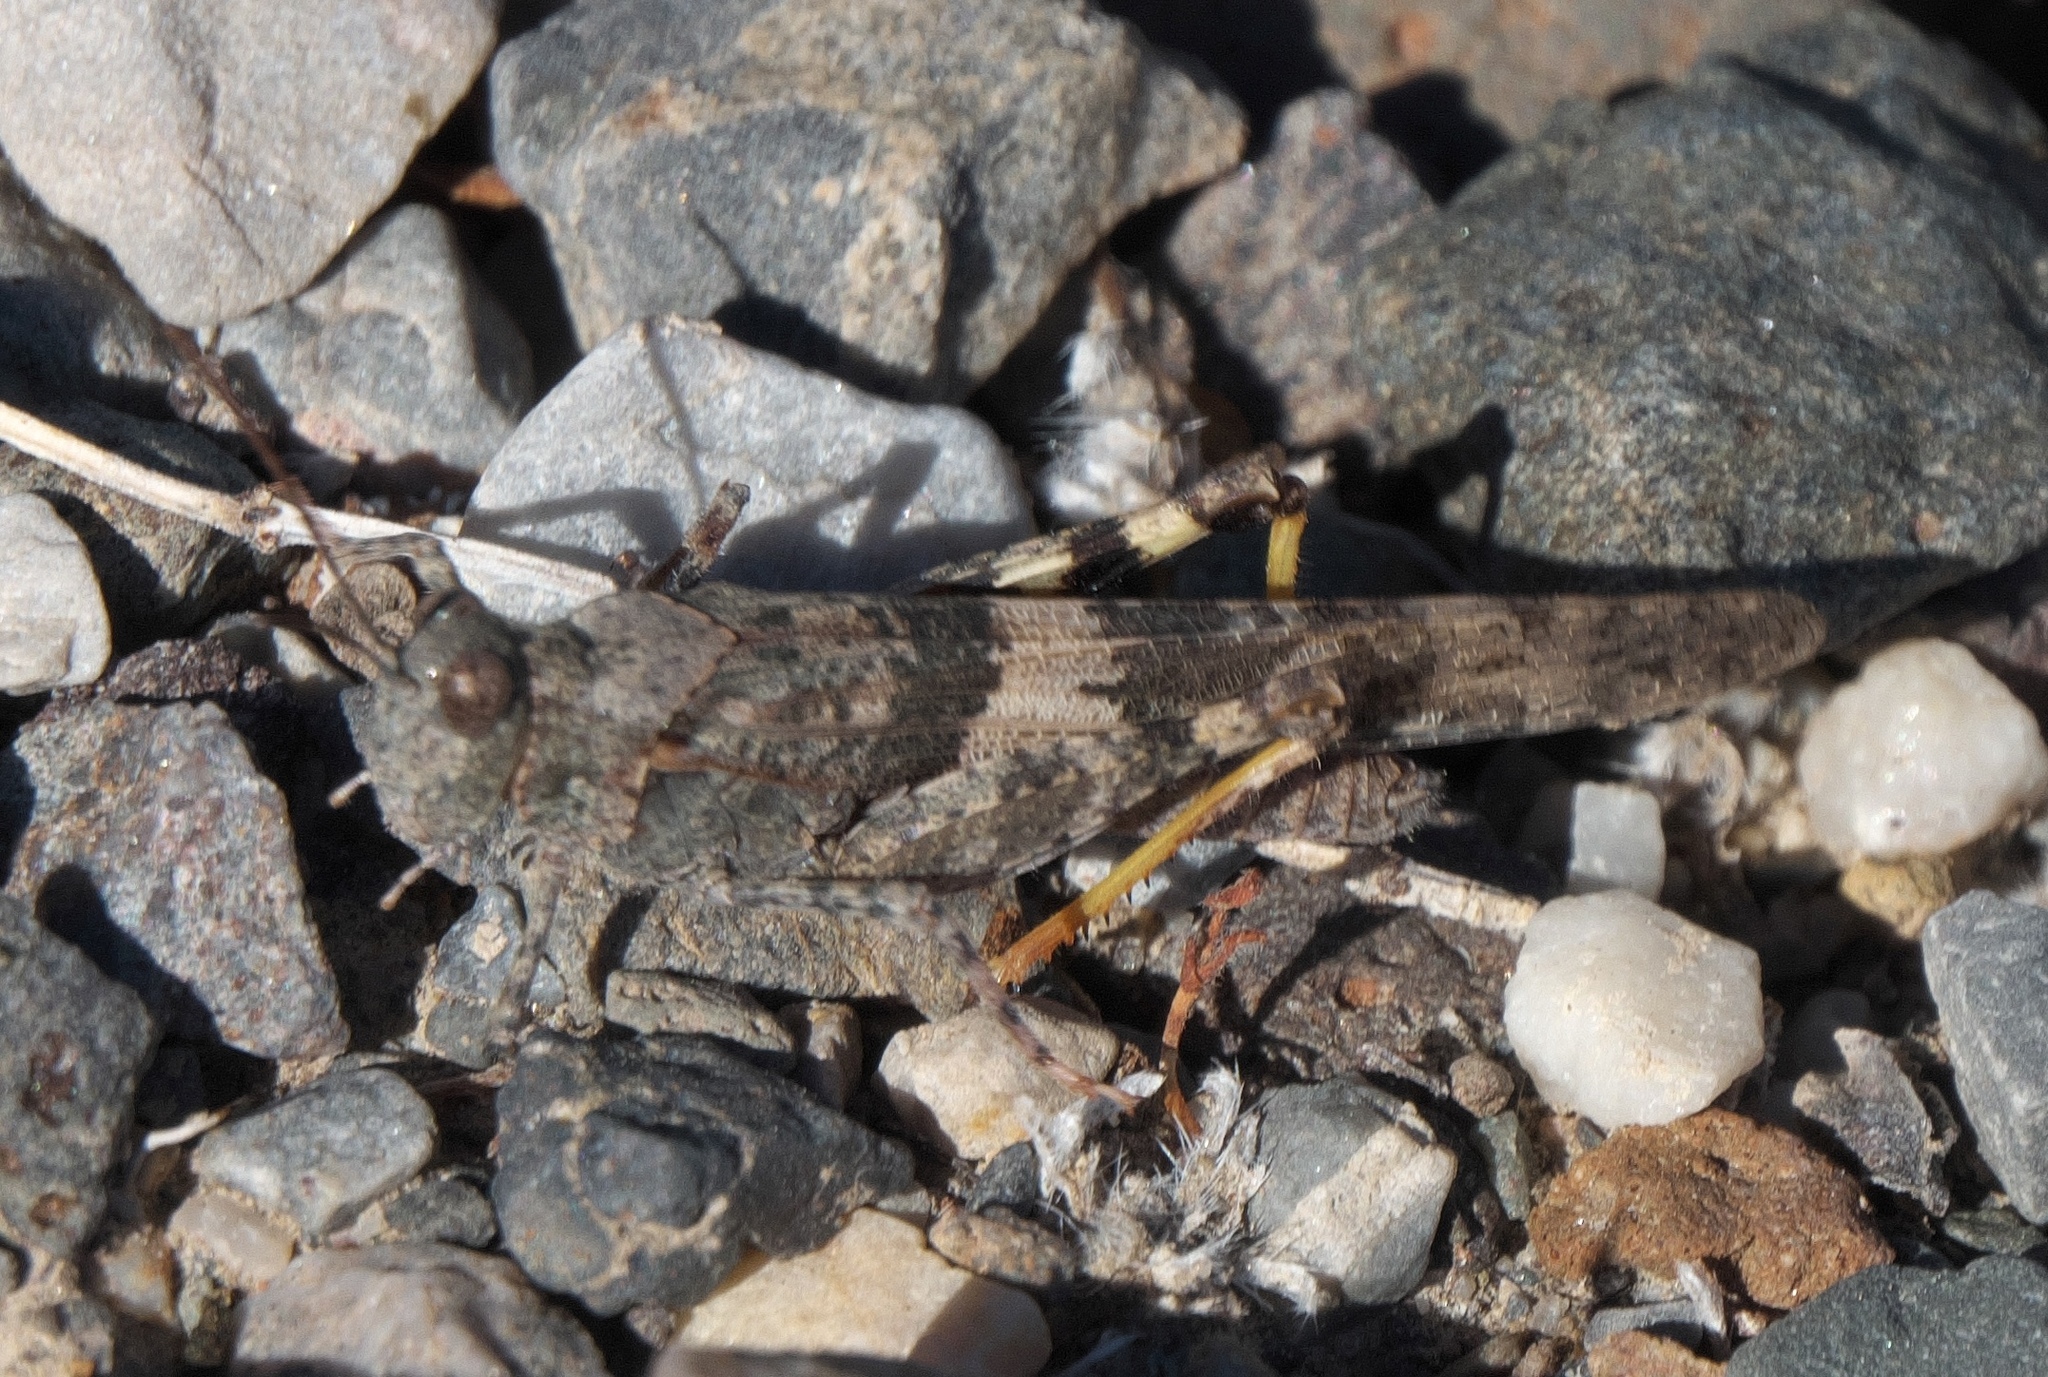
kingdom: Animalia
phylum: Arthropoda
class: Insecta
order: Orthoptera
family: Acrididae
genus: Trimerotropis
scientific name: Trimerotropis pallidipennis
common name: Pallid-winged grasshopper
